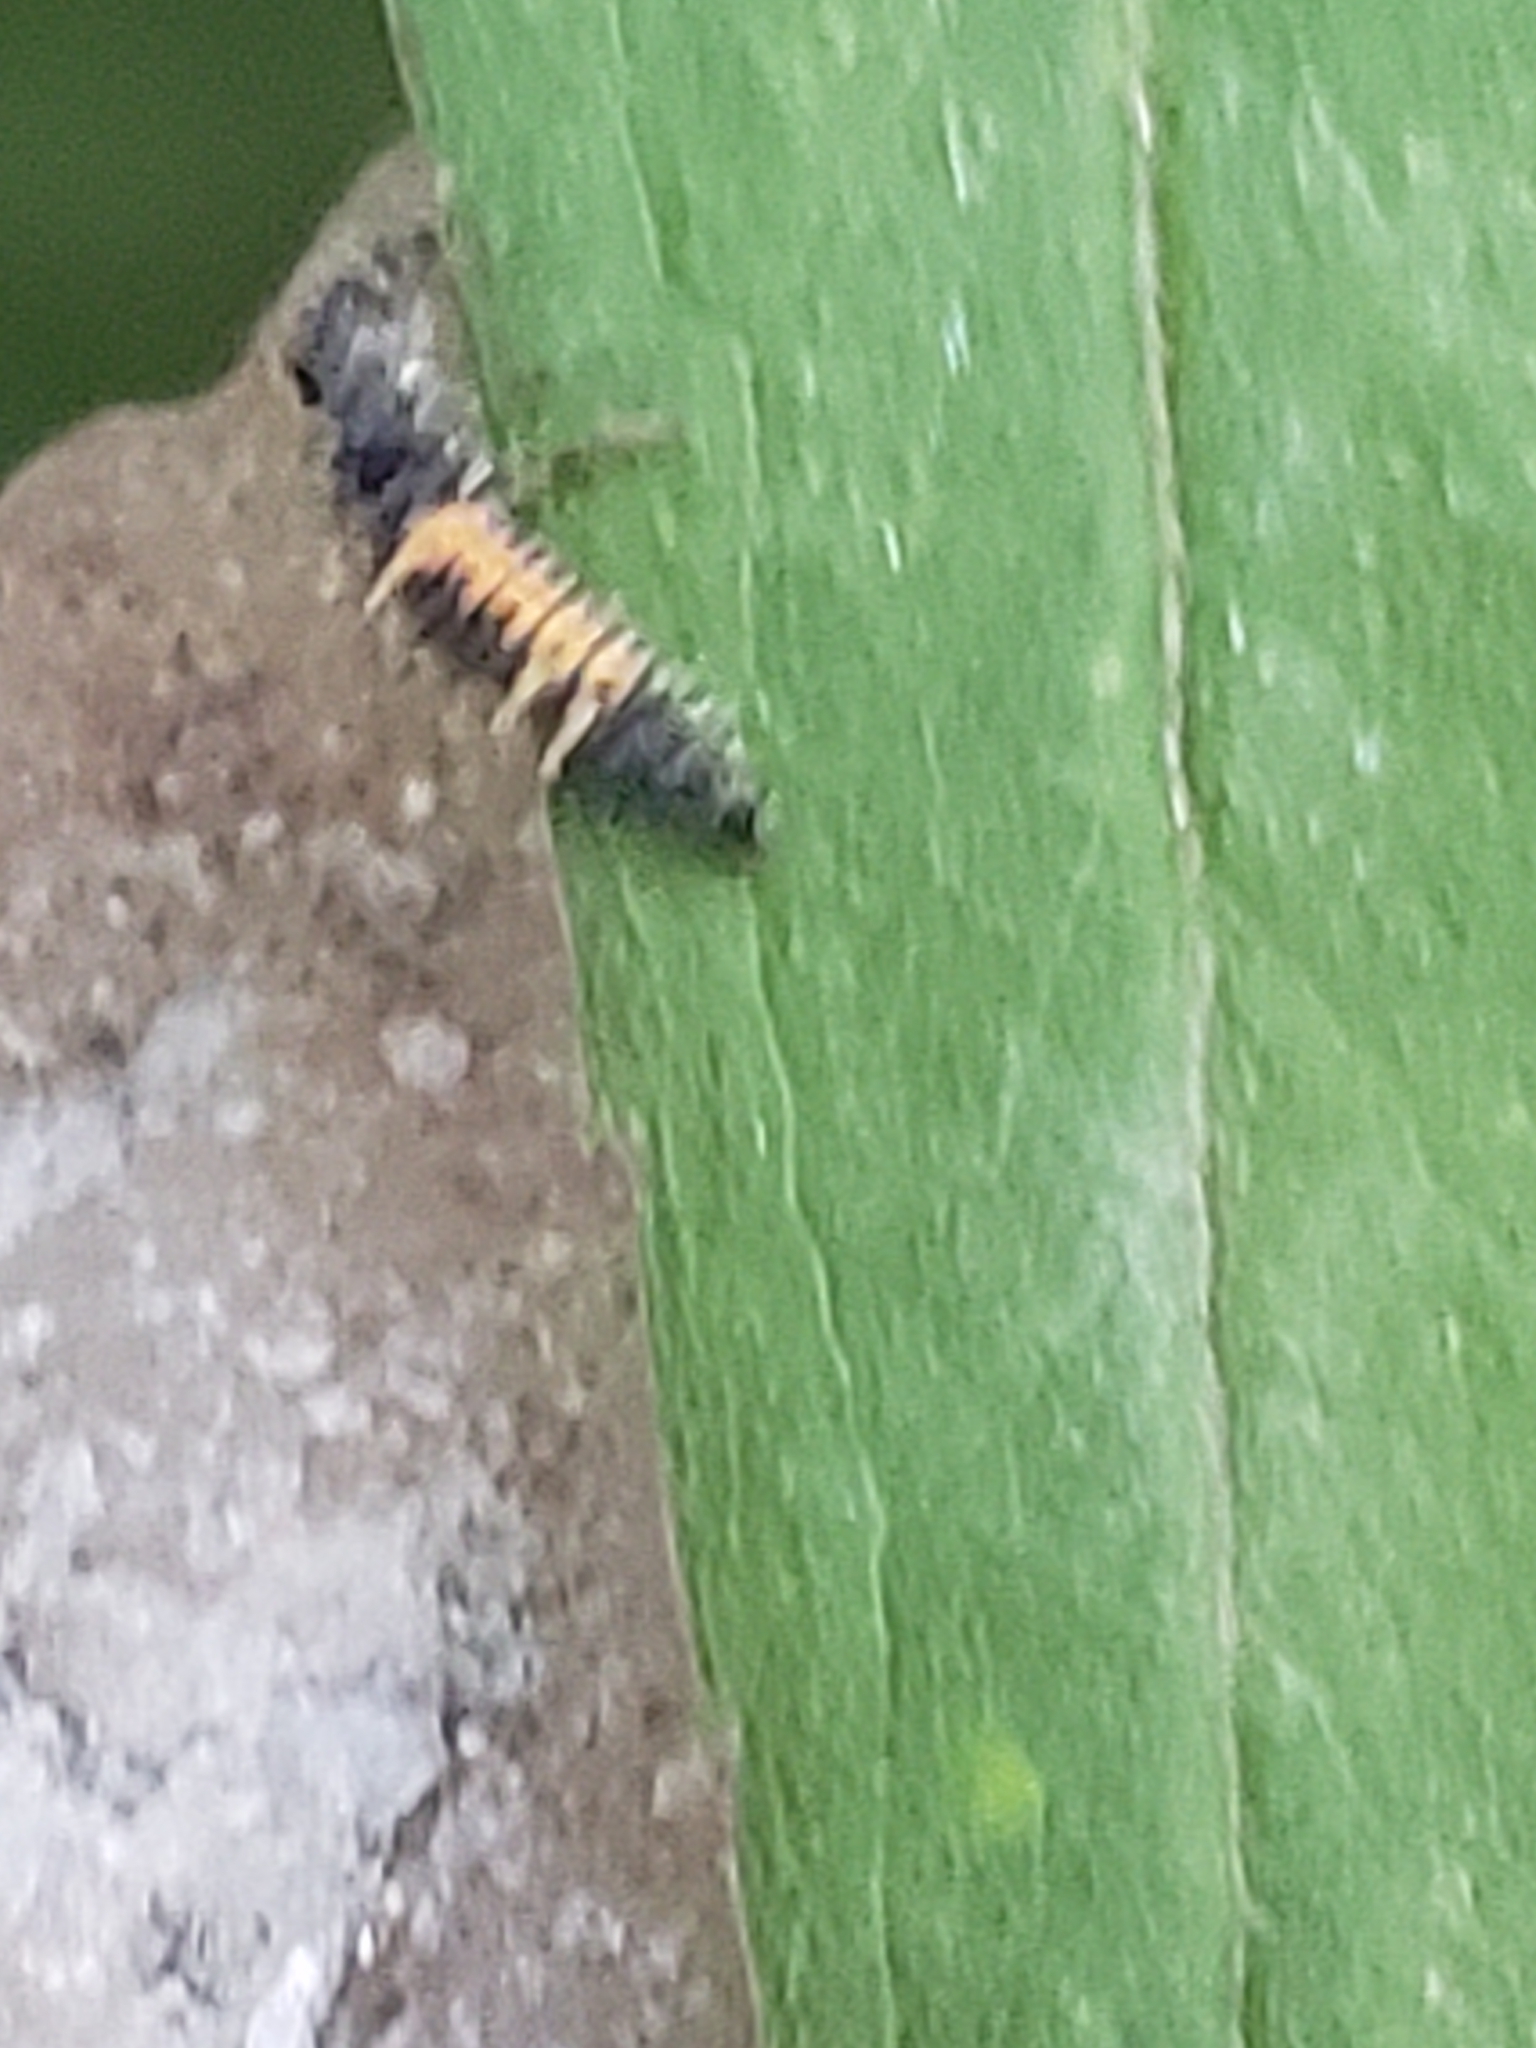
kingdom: Animalia
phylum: Arthropoda
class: Insecta
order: Coleoptera
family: Coccinellidae
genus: Harmonia
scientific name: Harmonia axyridis
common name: Harlequin ladybird
